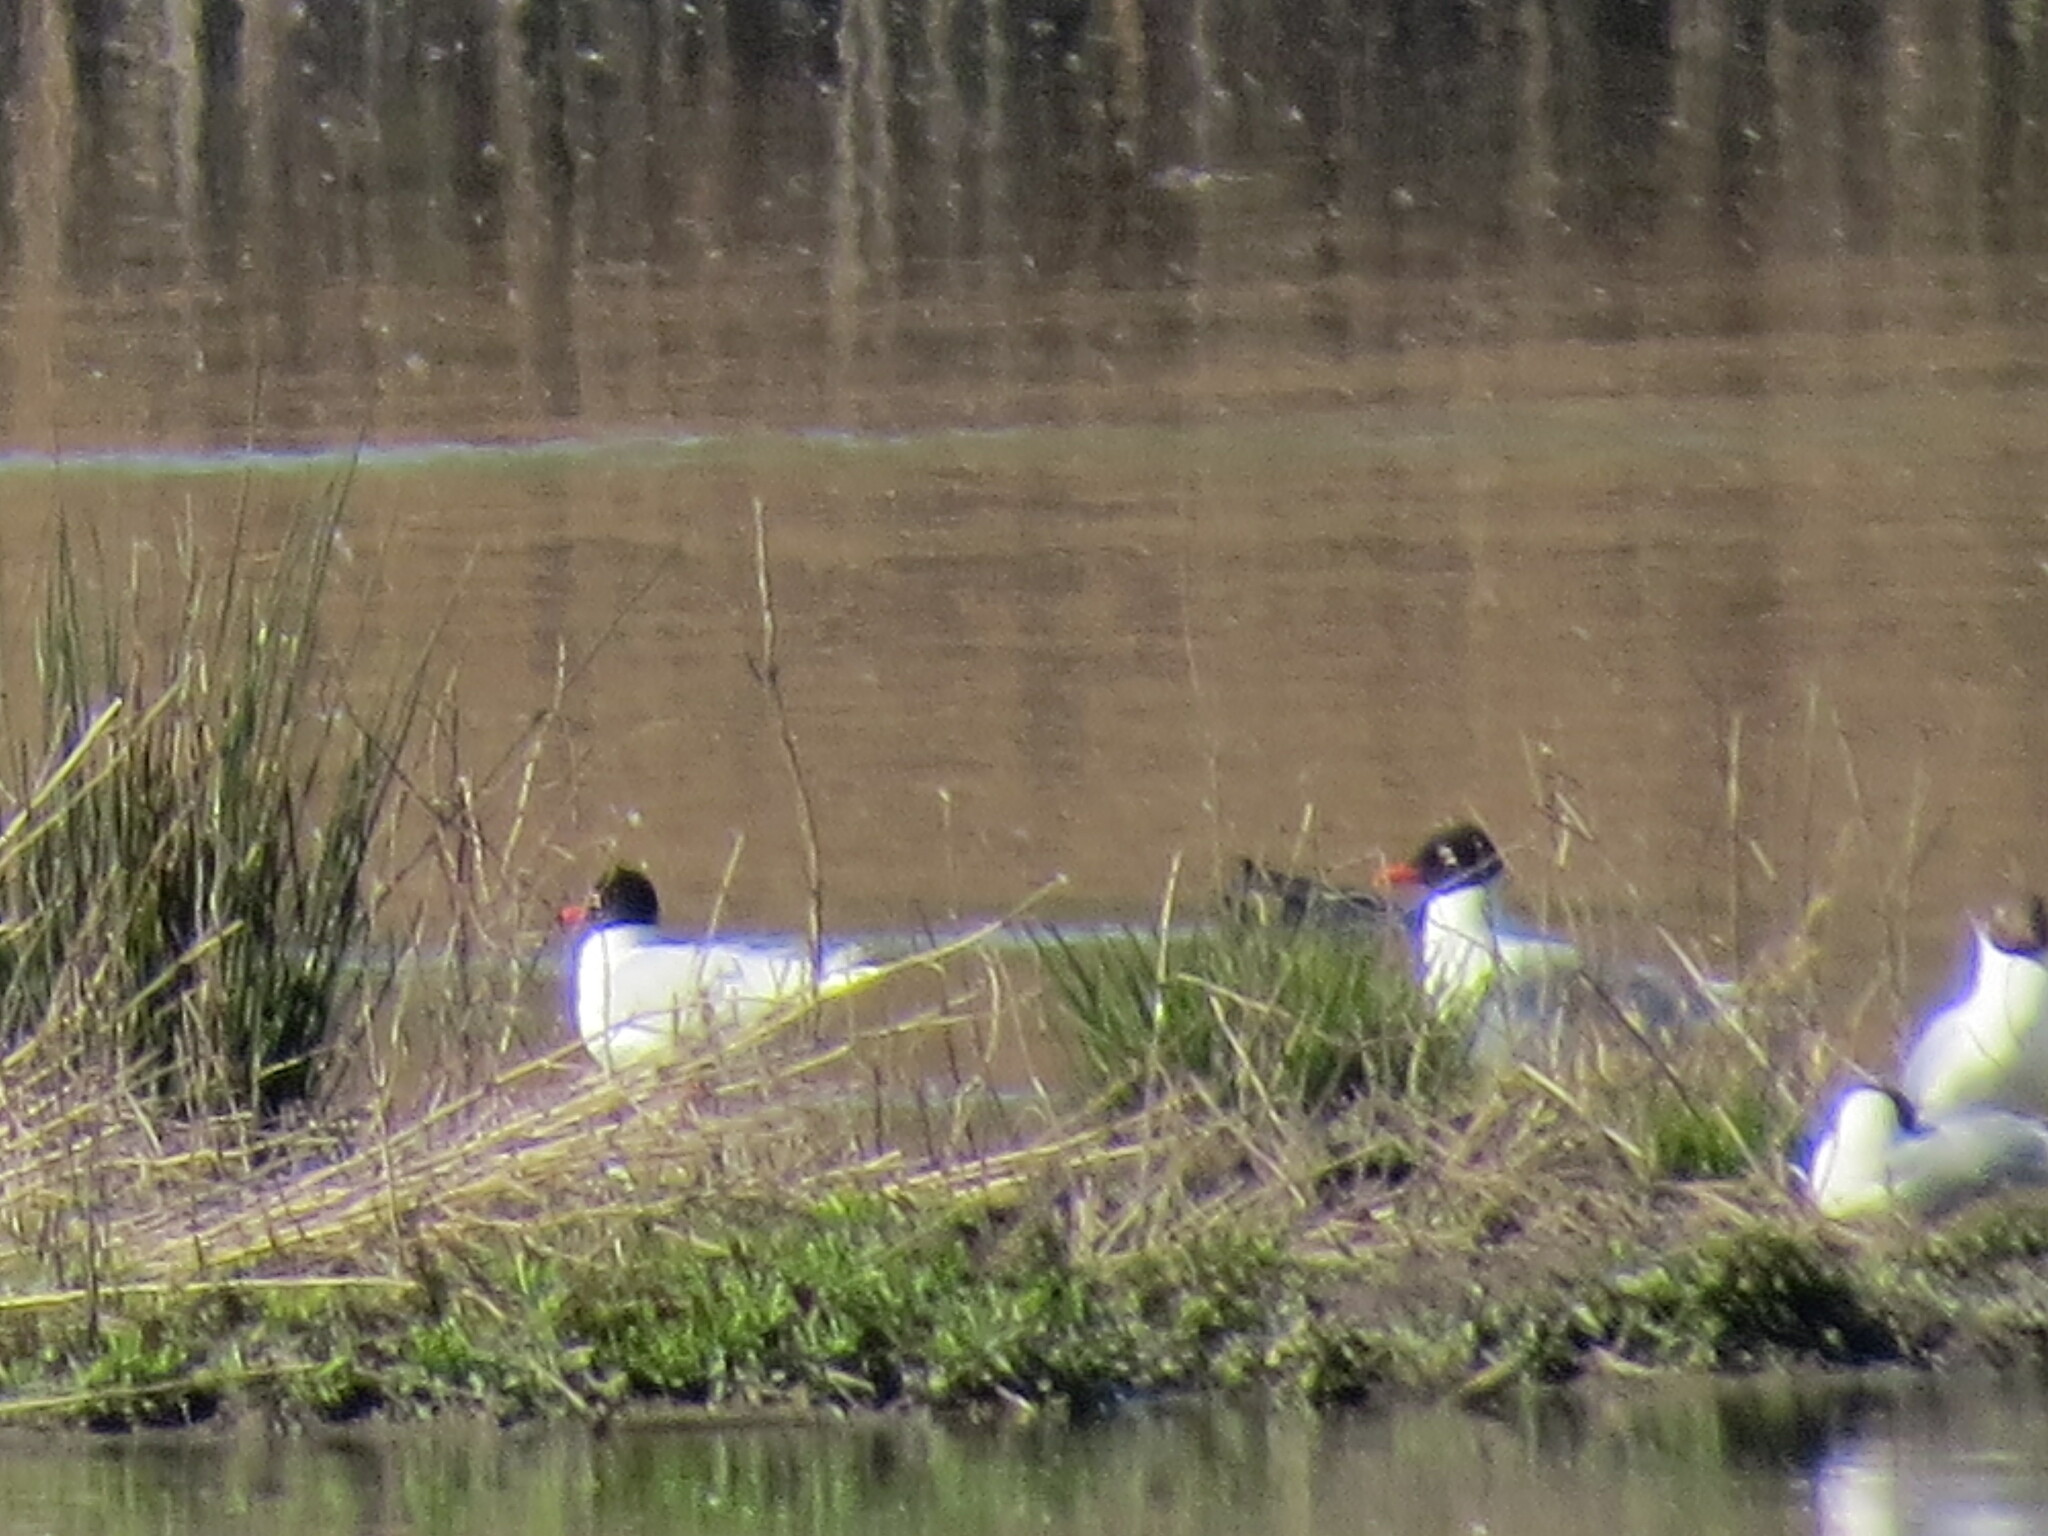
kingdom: Animalia
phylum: Chordata
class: Aves
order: Charadriiformes
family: Laridae
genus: Ichthyaetus
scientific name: Ichthyaetus melanocephalus
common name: Mediterranean gull
